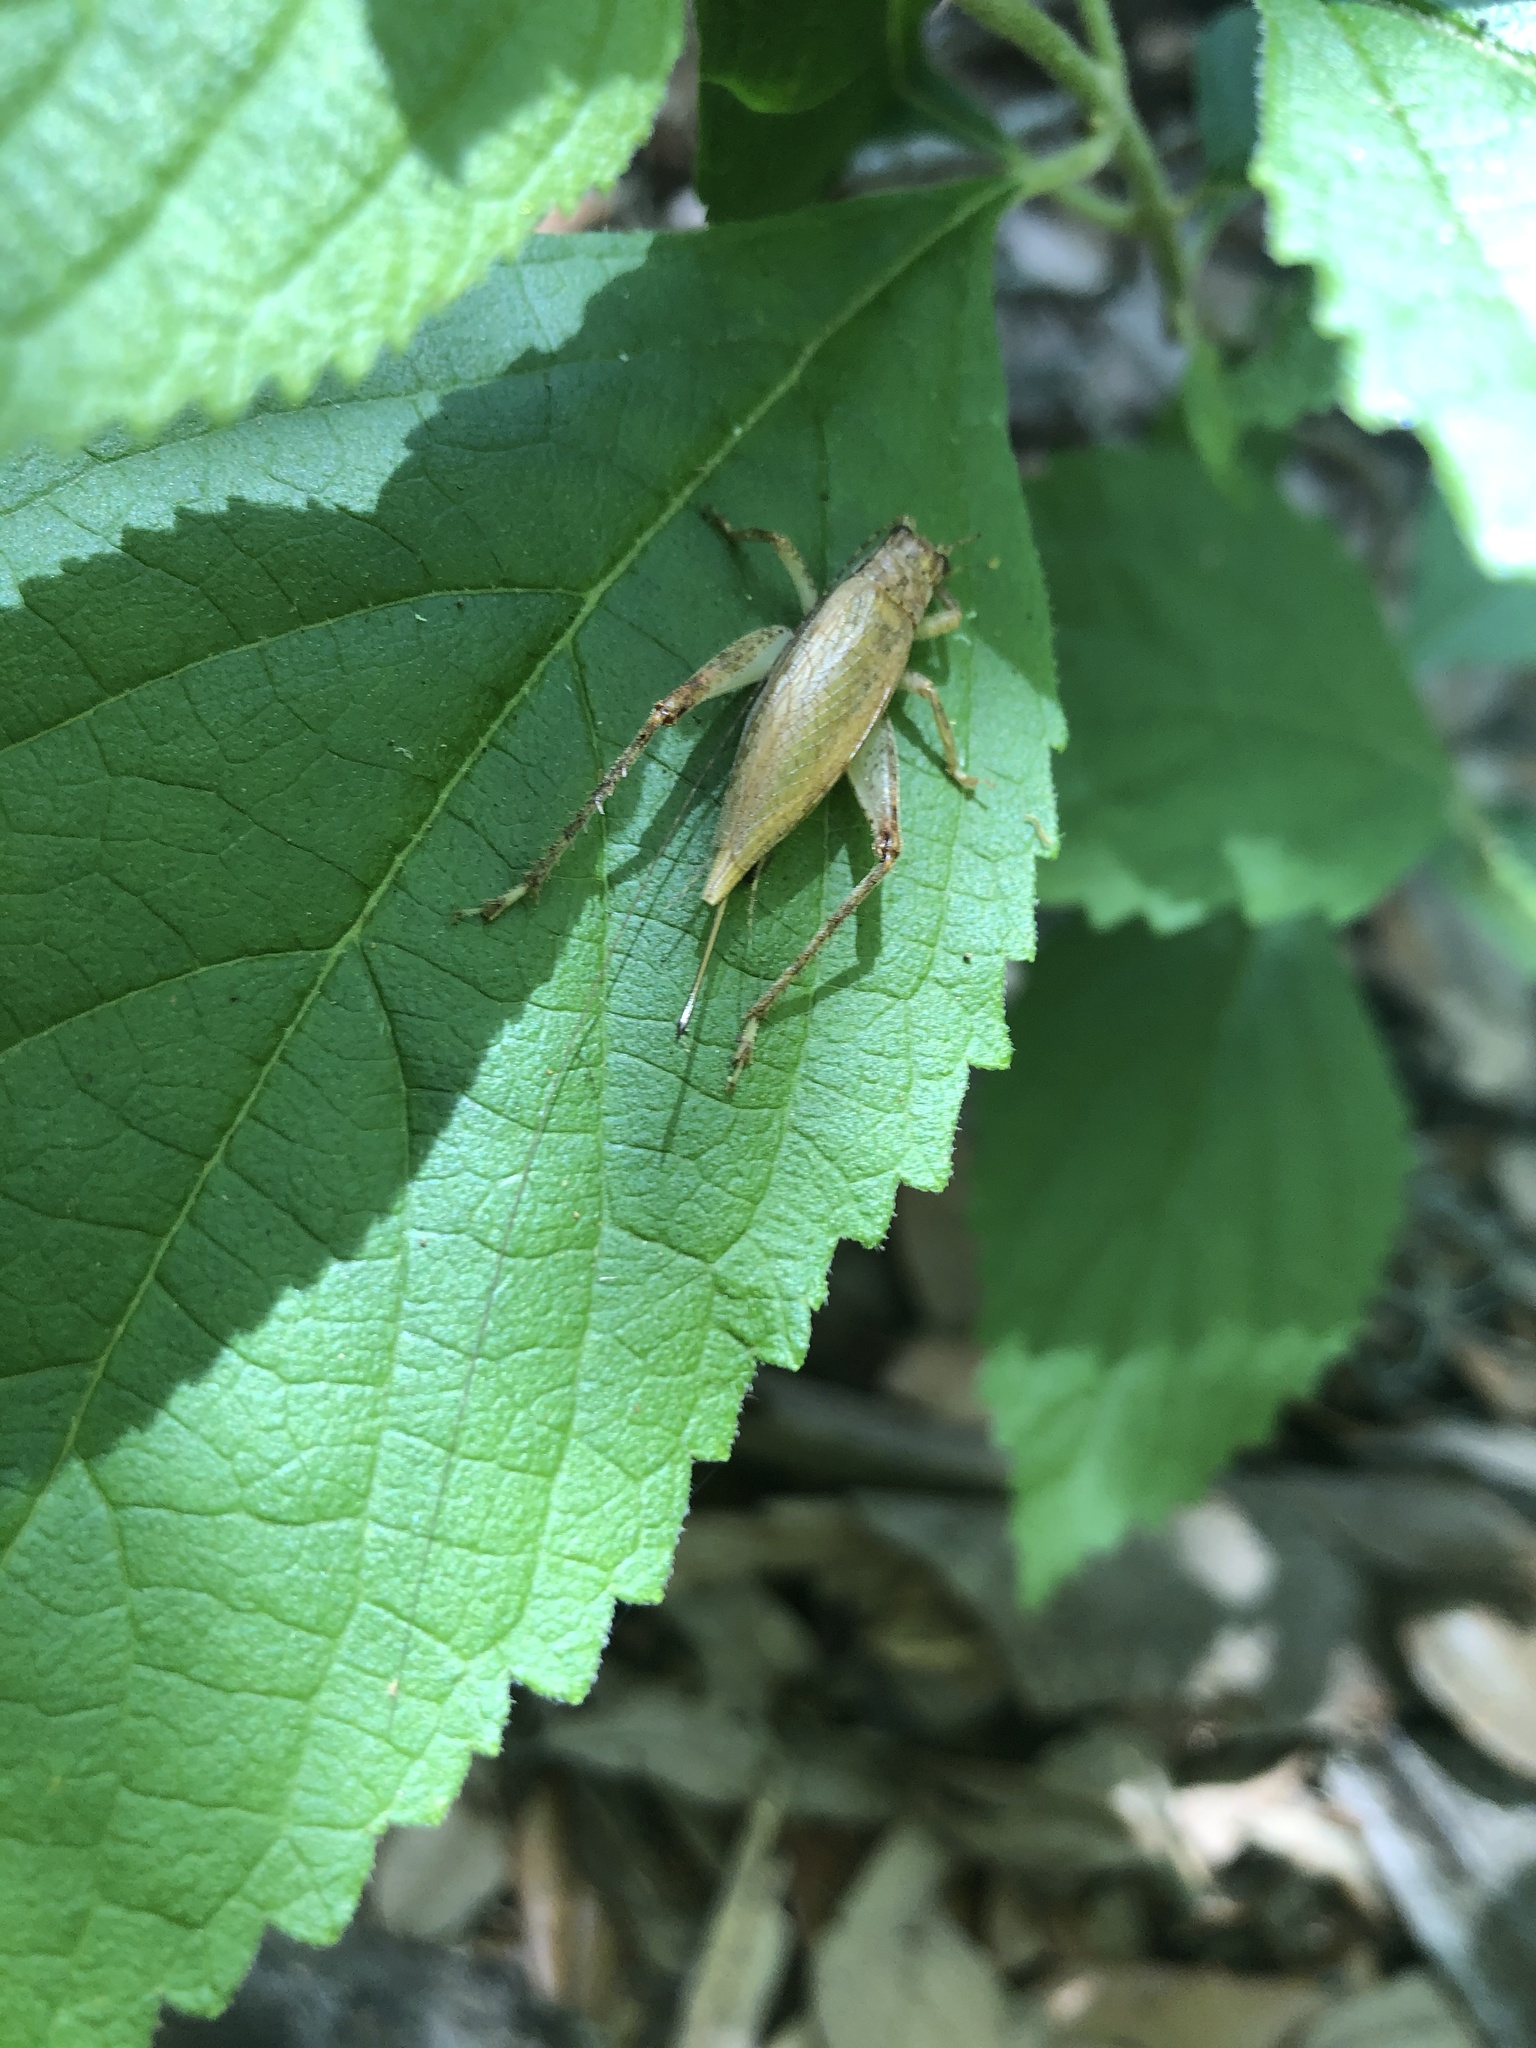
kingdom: Animalia
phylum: Arthropoda
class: Insecta
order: Orthoptera
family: Gryllidae
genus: Hapithus
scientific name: Hapithus luteolira
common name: False jumping bush cricket
